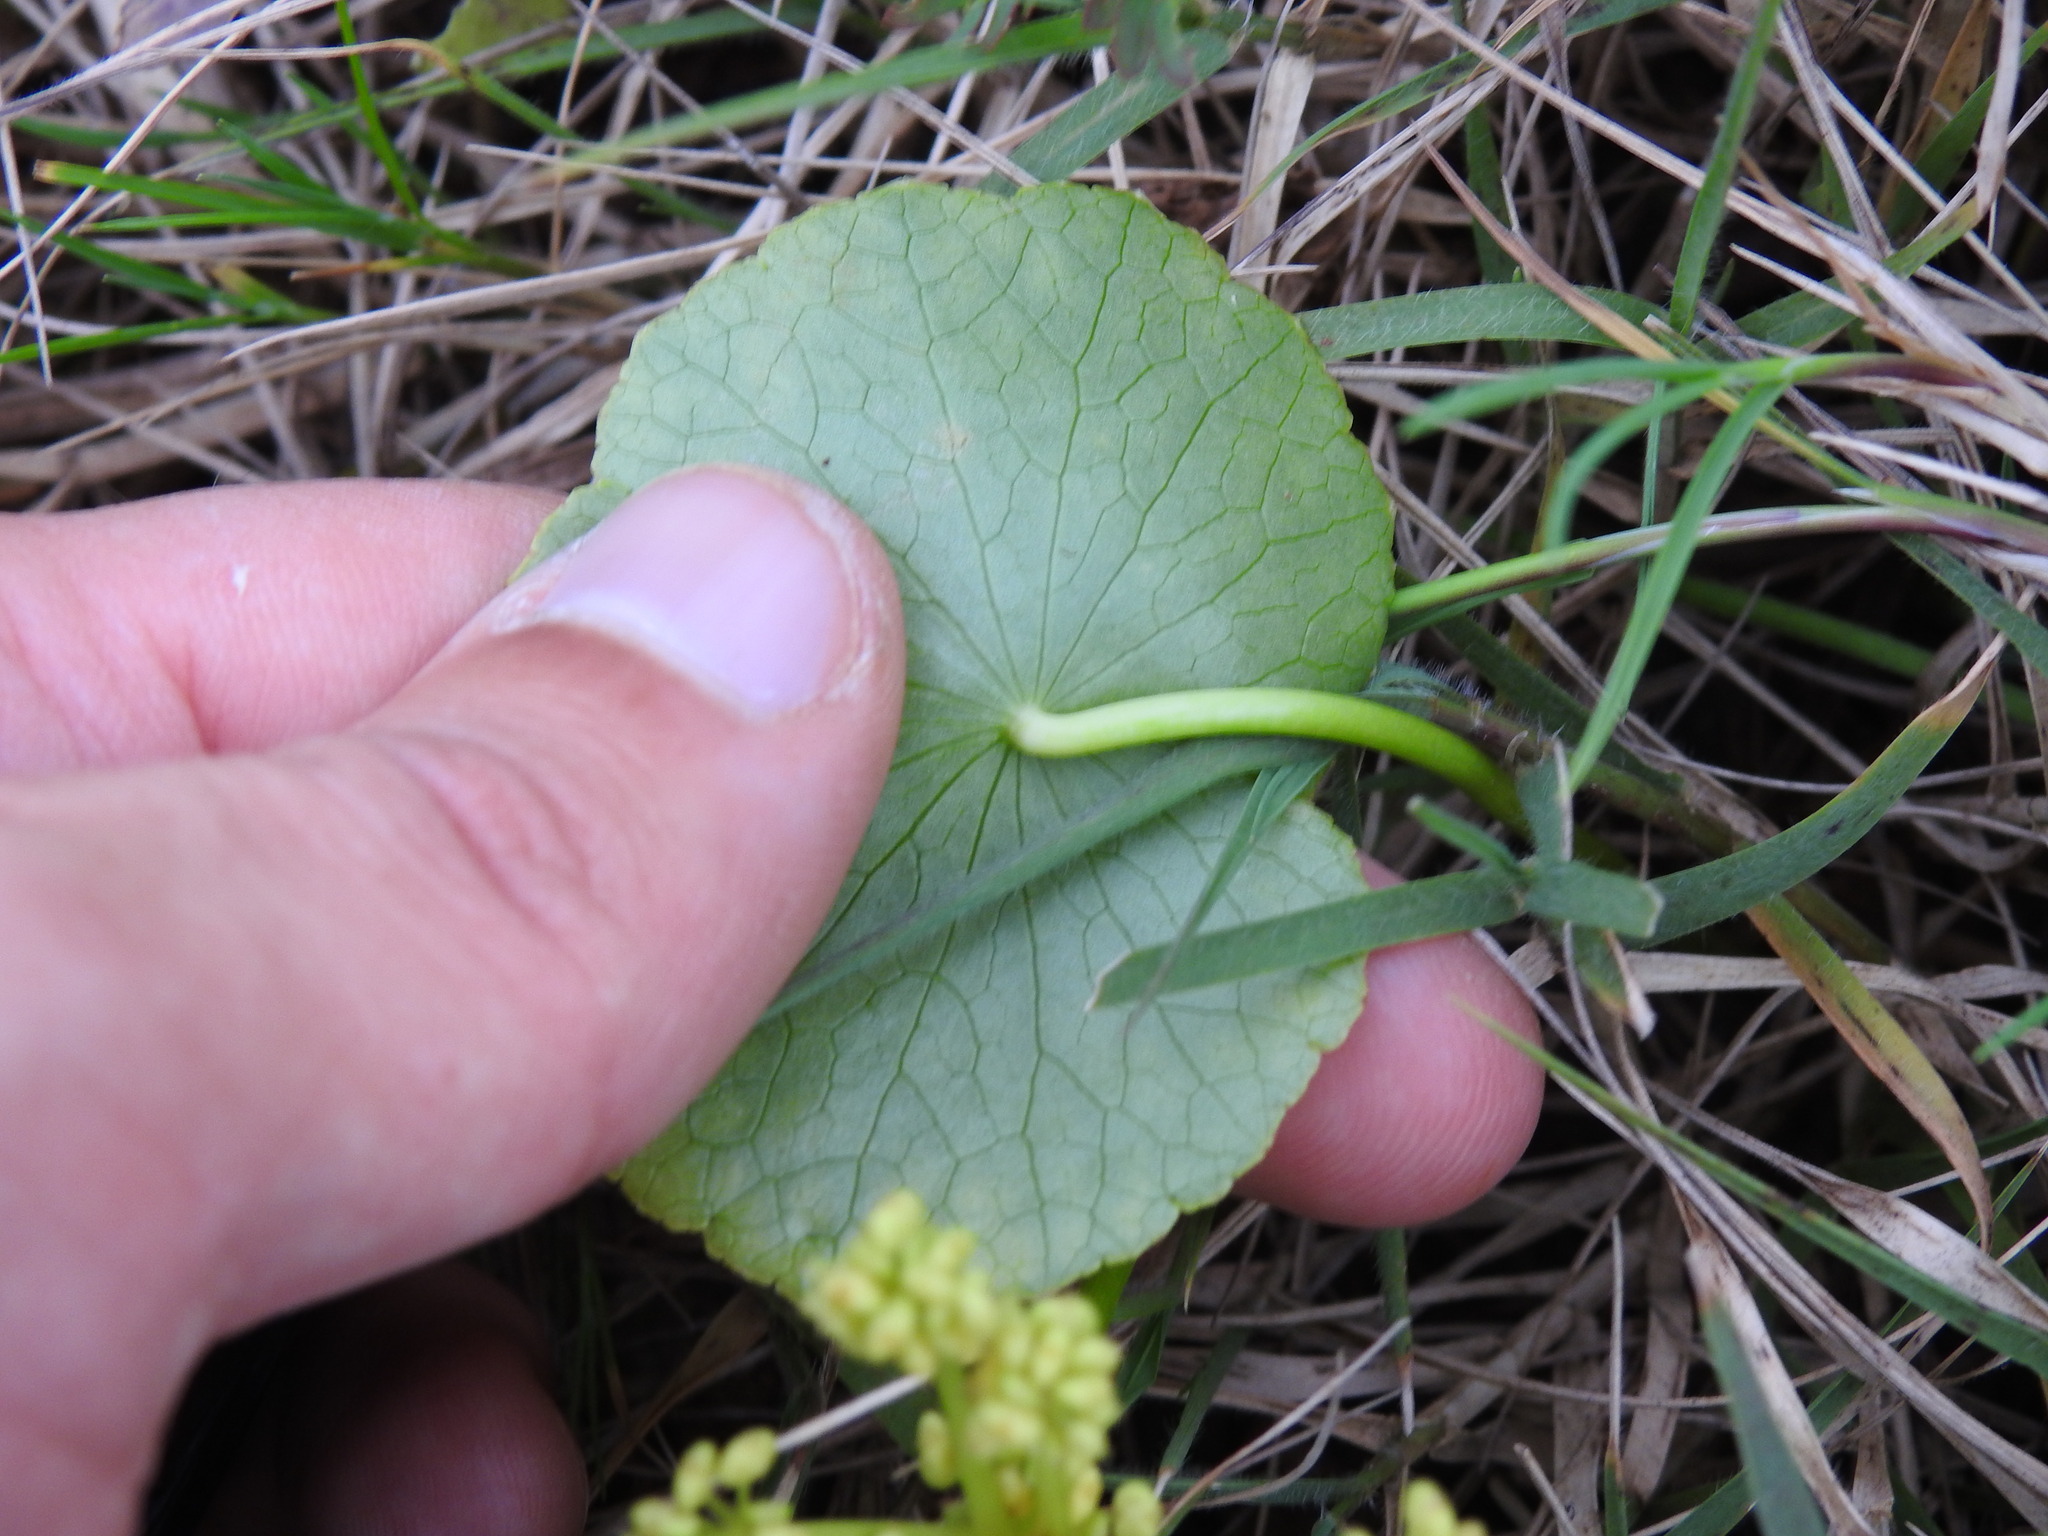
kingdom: Plantae
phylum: Tracheophyta
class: Magnoliopsida
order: Apiales
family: Araliaceae
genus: Hydrocotyle
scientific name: Hydrocotyle bonariensis
